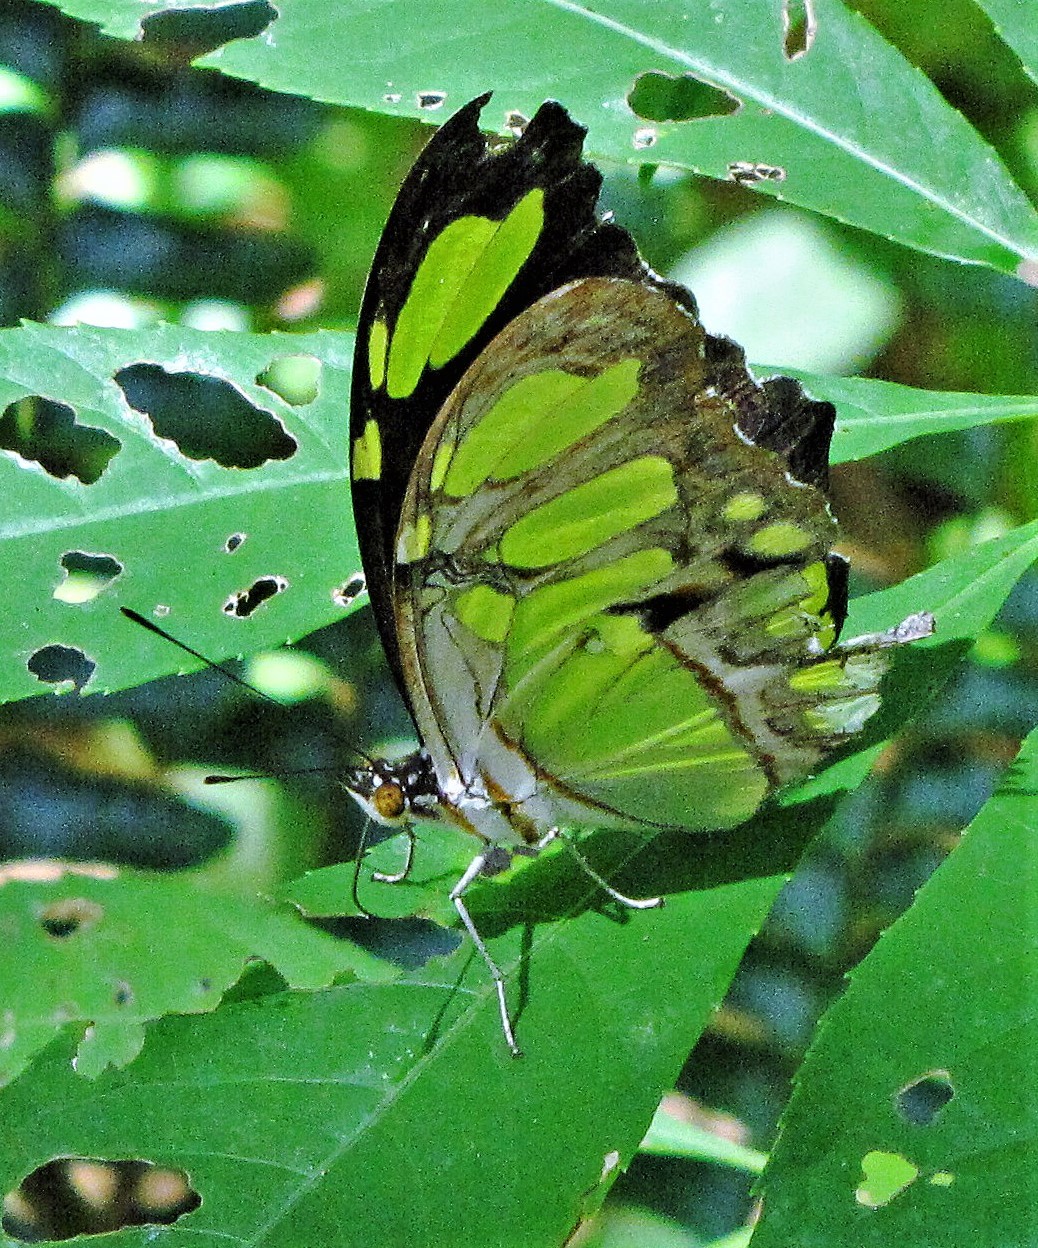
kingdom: Animalia
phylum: Arthropoda
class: Insecta
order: Lepidoptera
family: Nymphalidae
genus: Siproeta
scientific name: Siproeta stelenes
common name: Malachite
